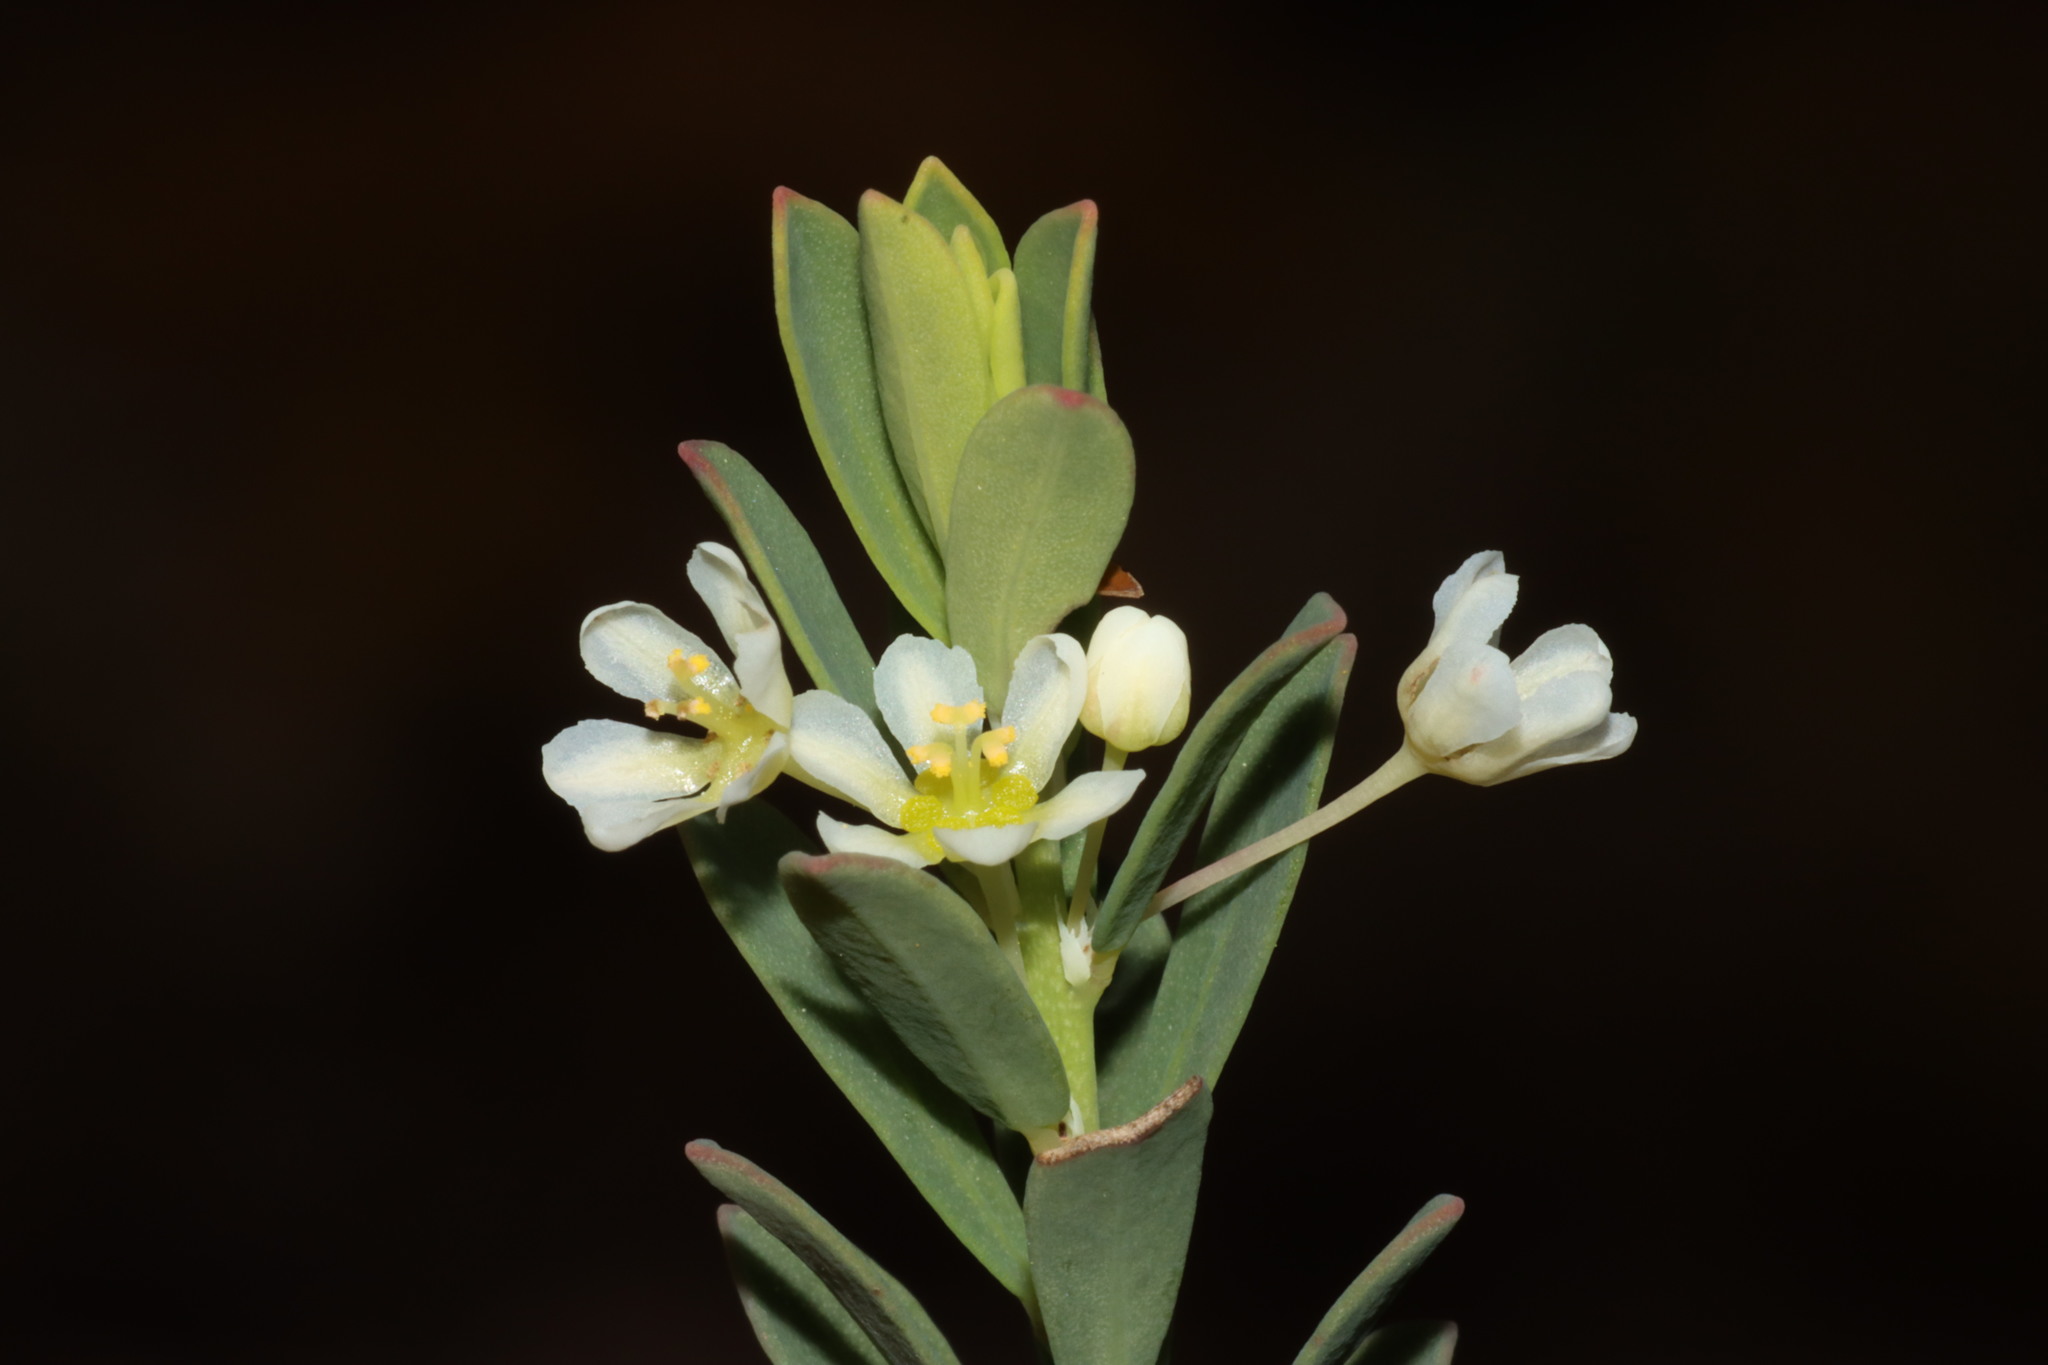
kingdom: Plantae
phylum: Tracheophyta
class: Magnoliopsida
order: Malpighiales
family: Phyllanthaceae
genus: Phyllanthus
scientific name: Phyllanthus calycinus
